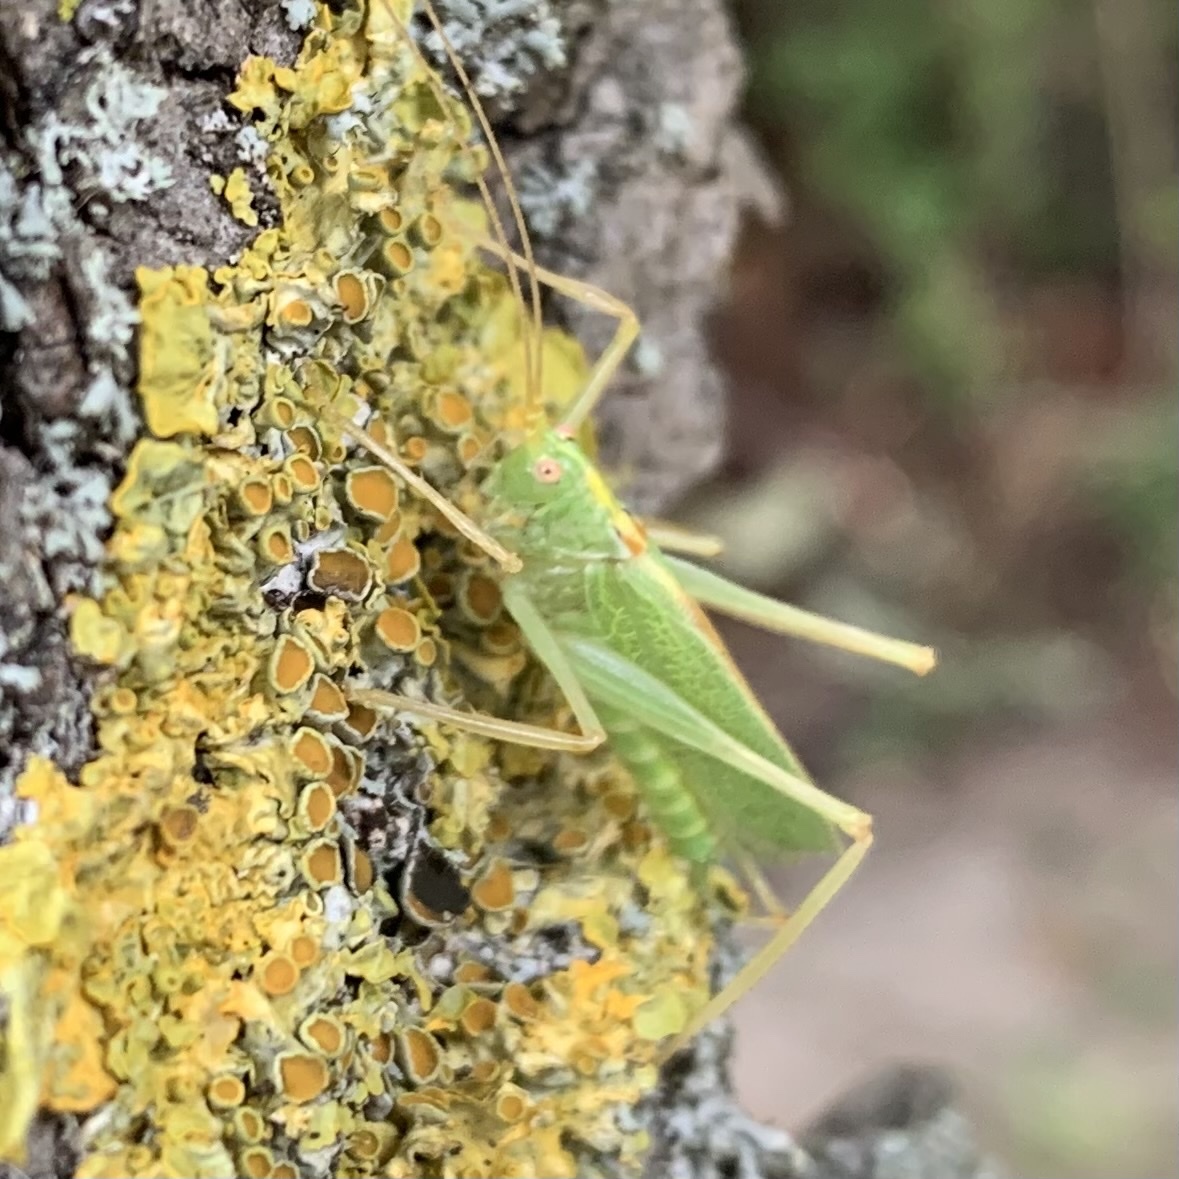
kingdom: Animalia
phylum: Arthropoda
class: Insecta
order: Orthoptera
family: Tettigoniidae
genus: Meconema
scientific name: Meconema thalassinum
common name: Oak bush-cricket
